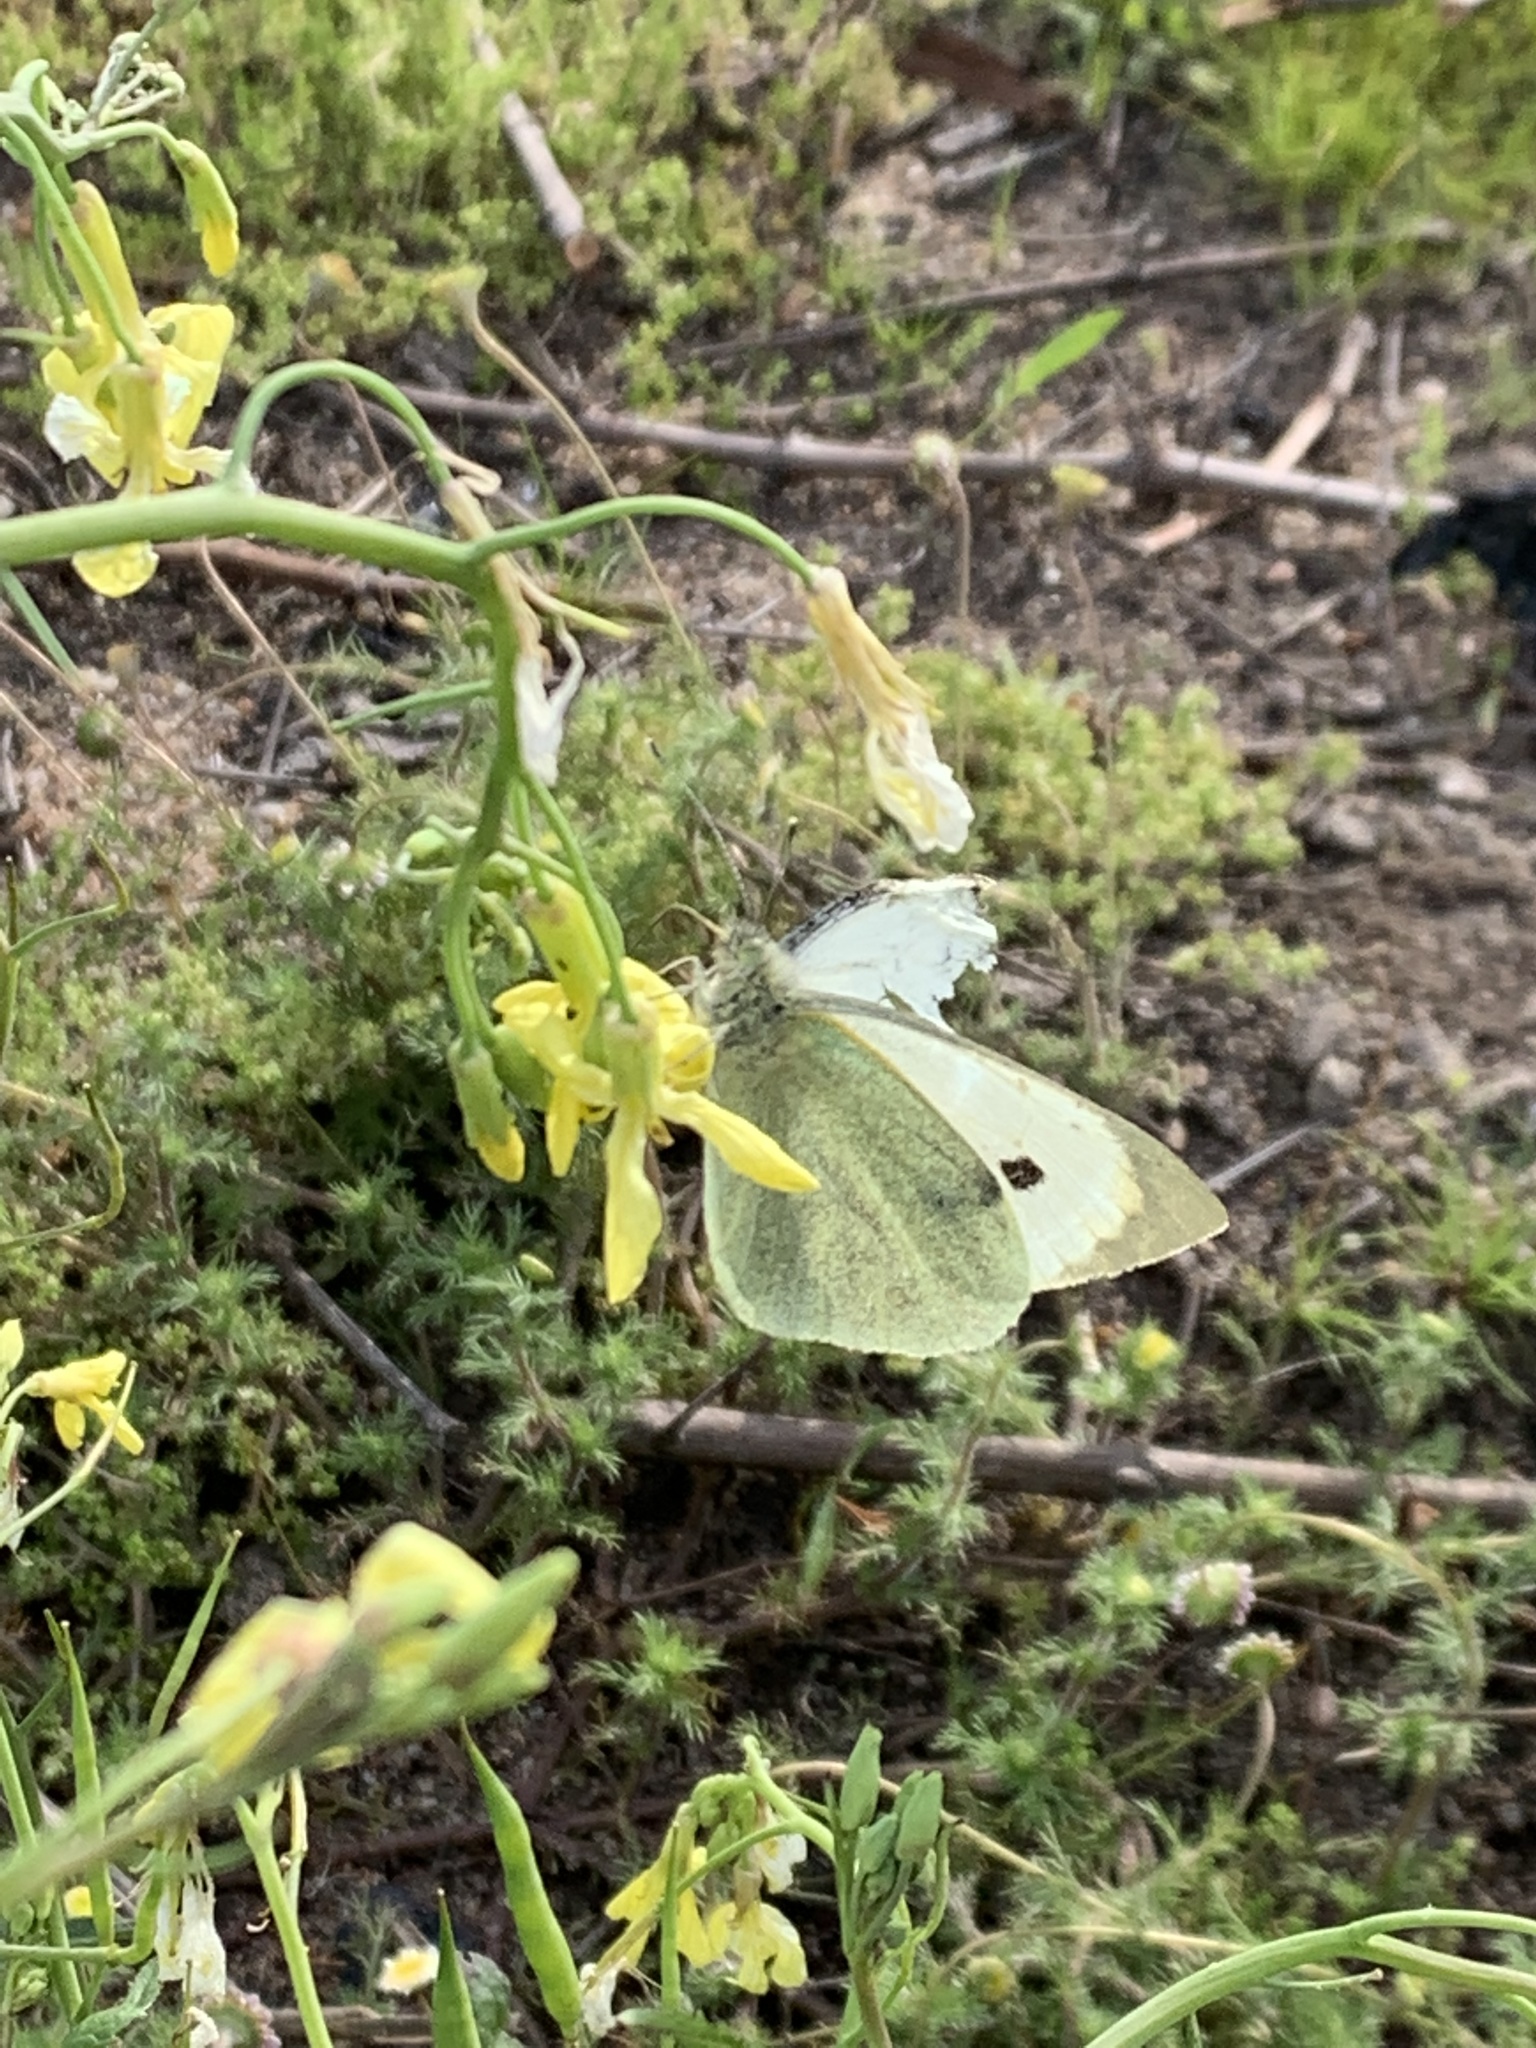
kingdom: Animalia
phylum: Arthropoda
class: Insecta
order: Lepidoptera
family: Pieridae
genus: Pieris
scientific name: Pieris brassicae
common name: Large white
